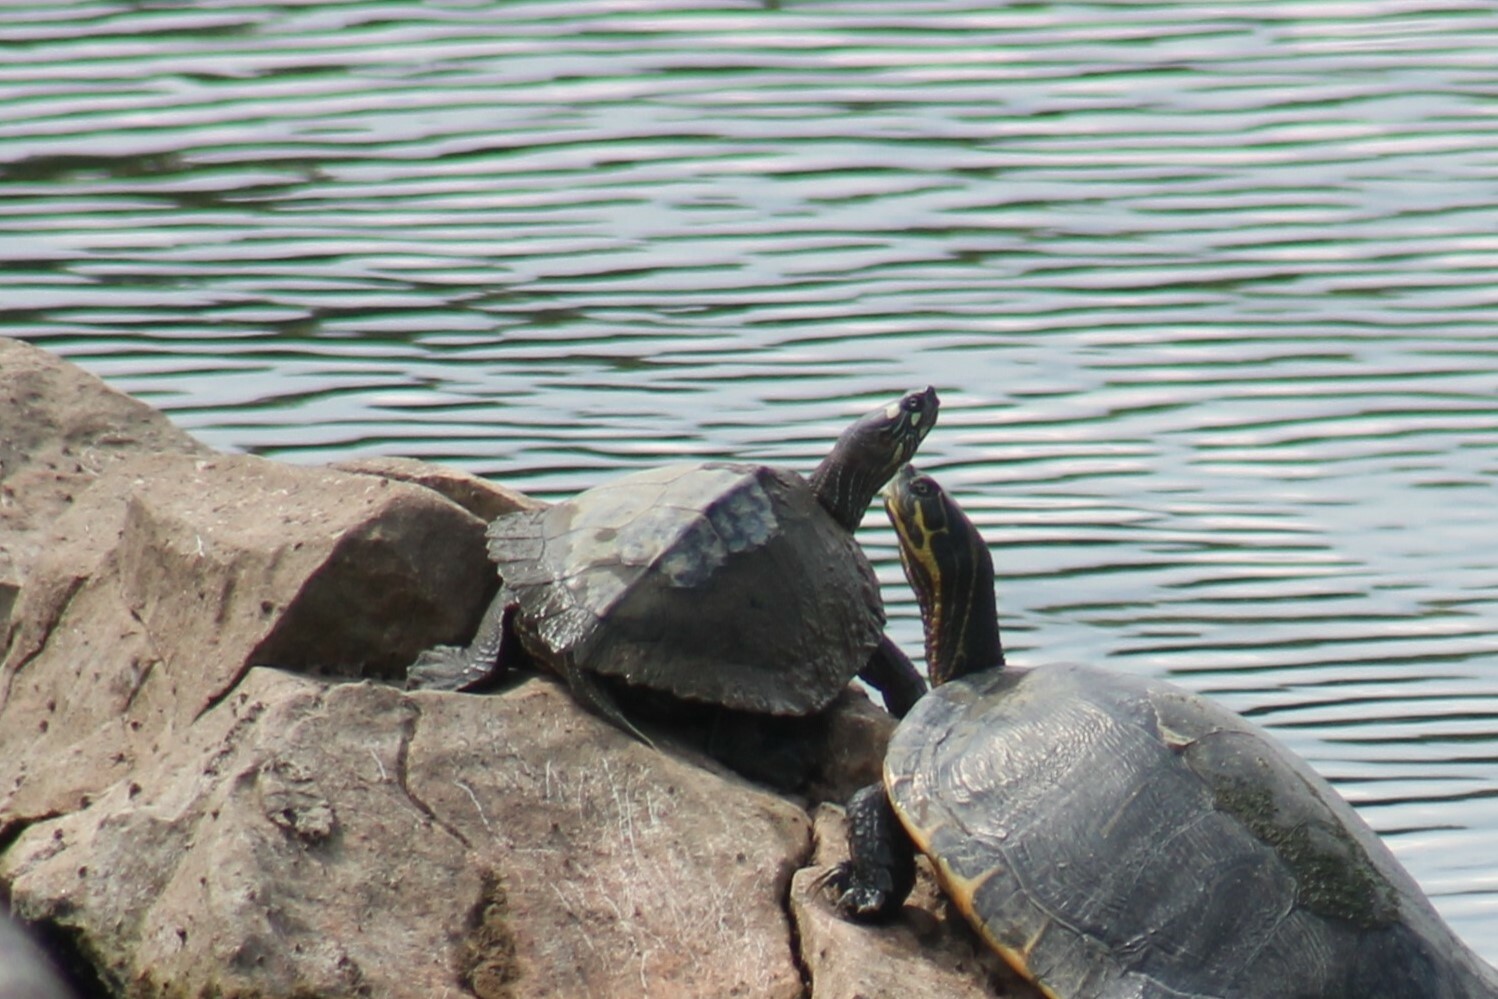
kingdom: Animalia
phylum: Chordata
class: Testudines
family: Emydidae
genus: Graptemys
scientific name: Graptemys ouachitensis
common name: Ouachita map turtle
